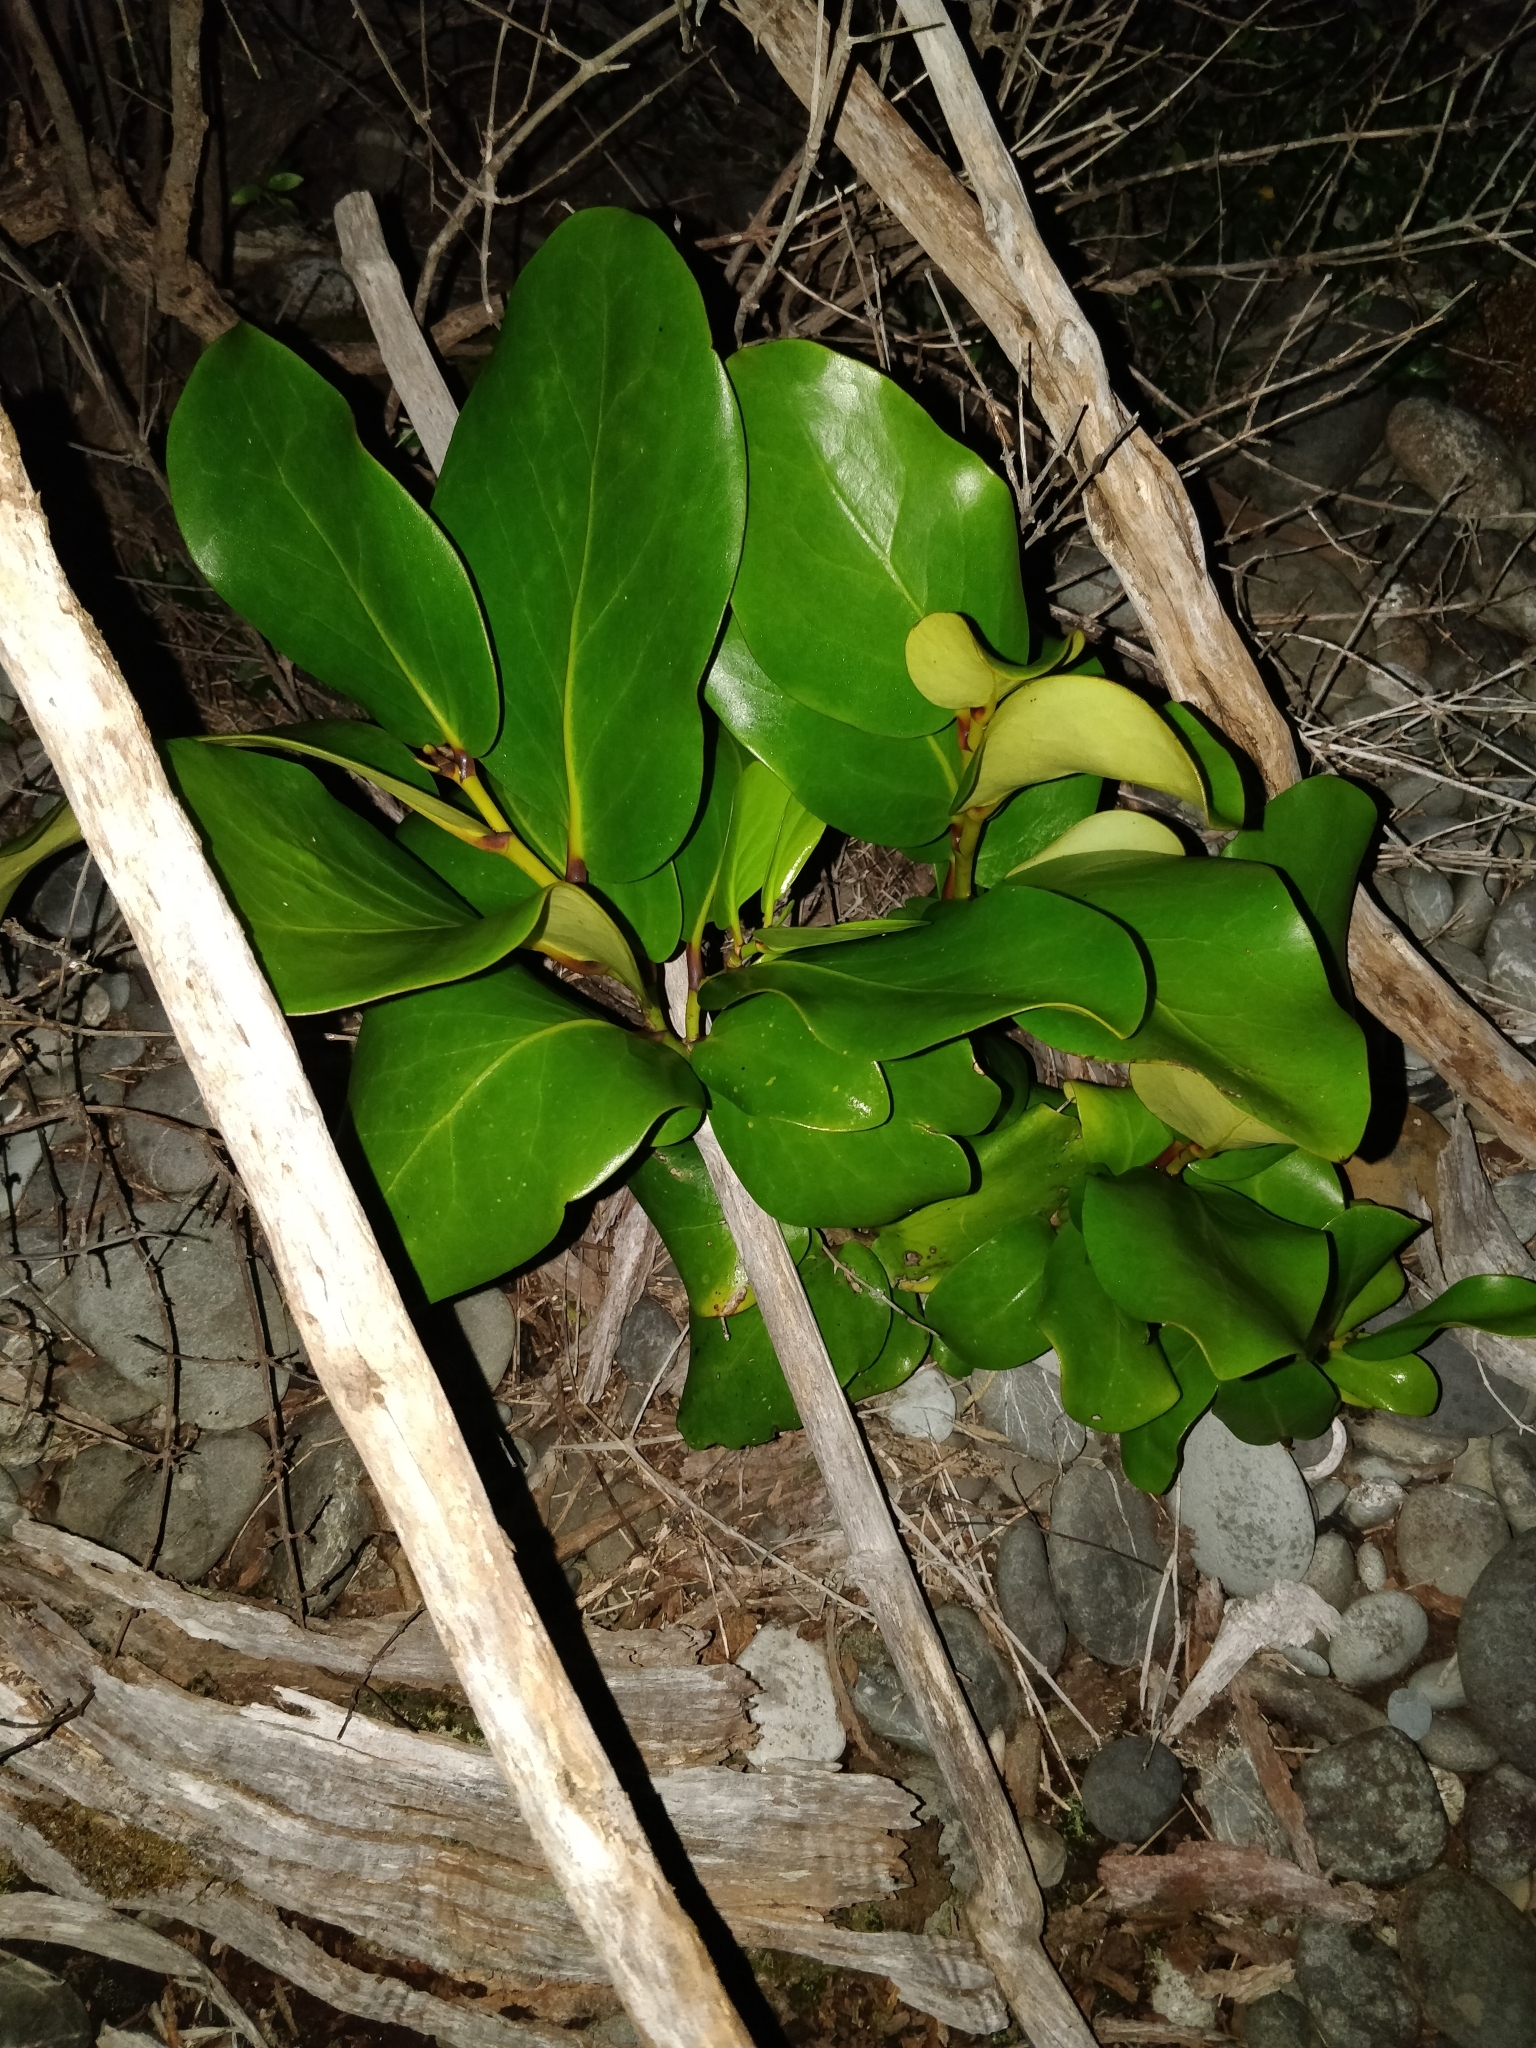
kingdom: Plantae
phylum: Tracheophyta
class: Magnoliopsida
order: Apiales
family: Griseliniaceae
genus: Griselinia
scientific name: Griselinia lucida
